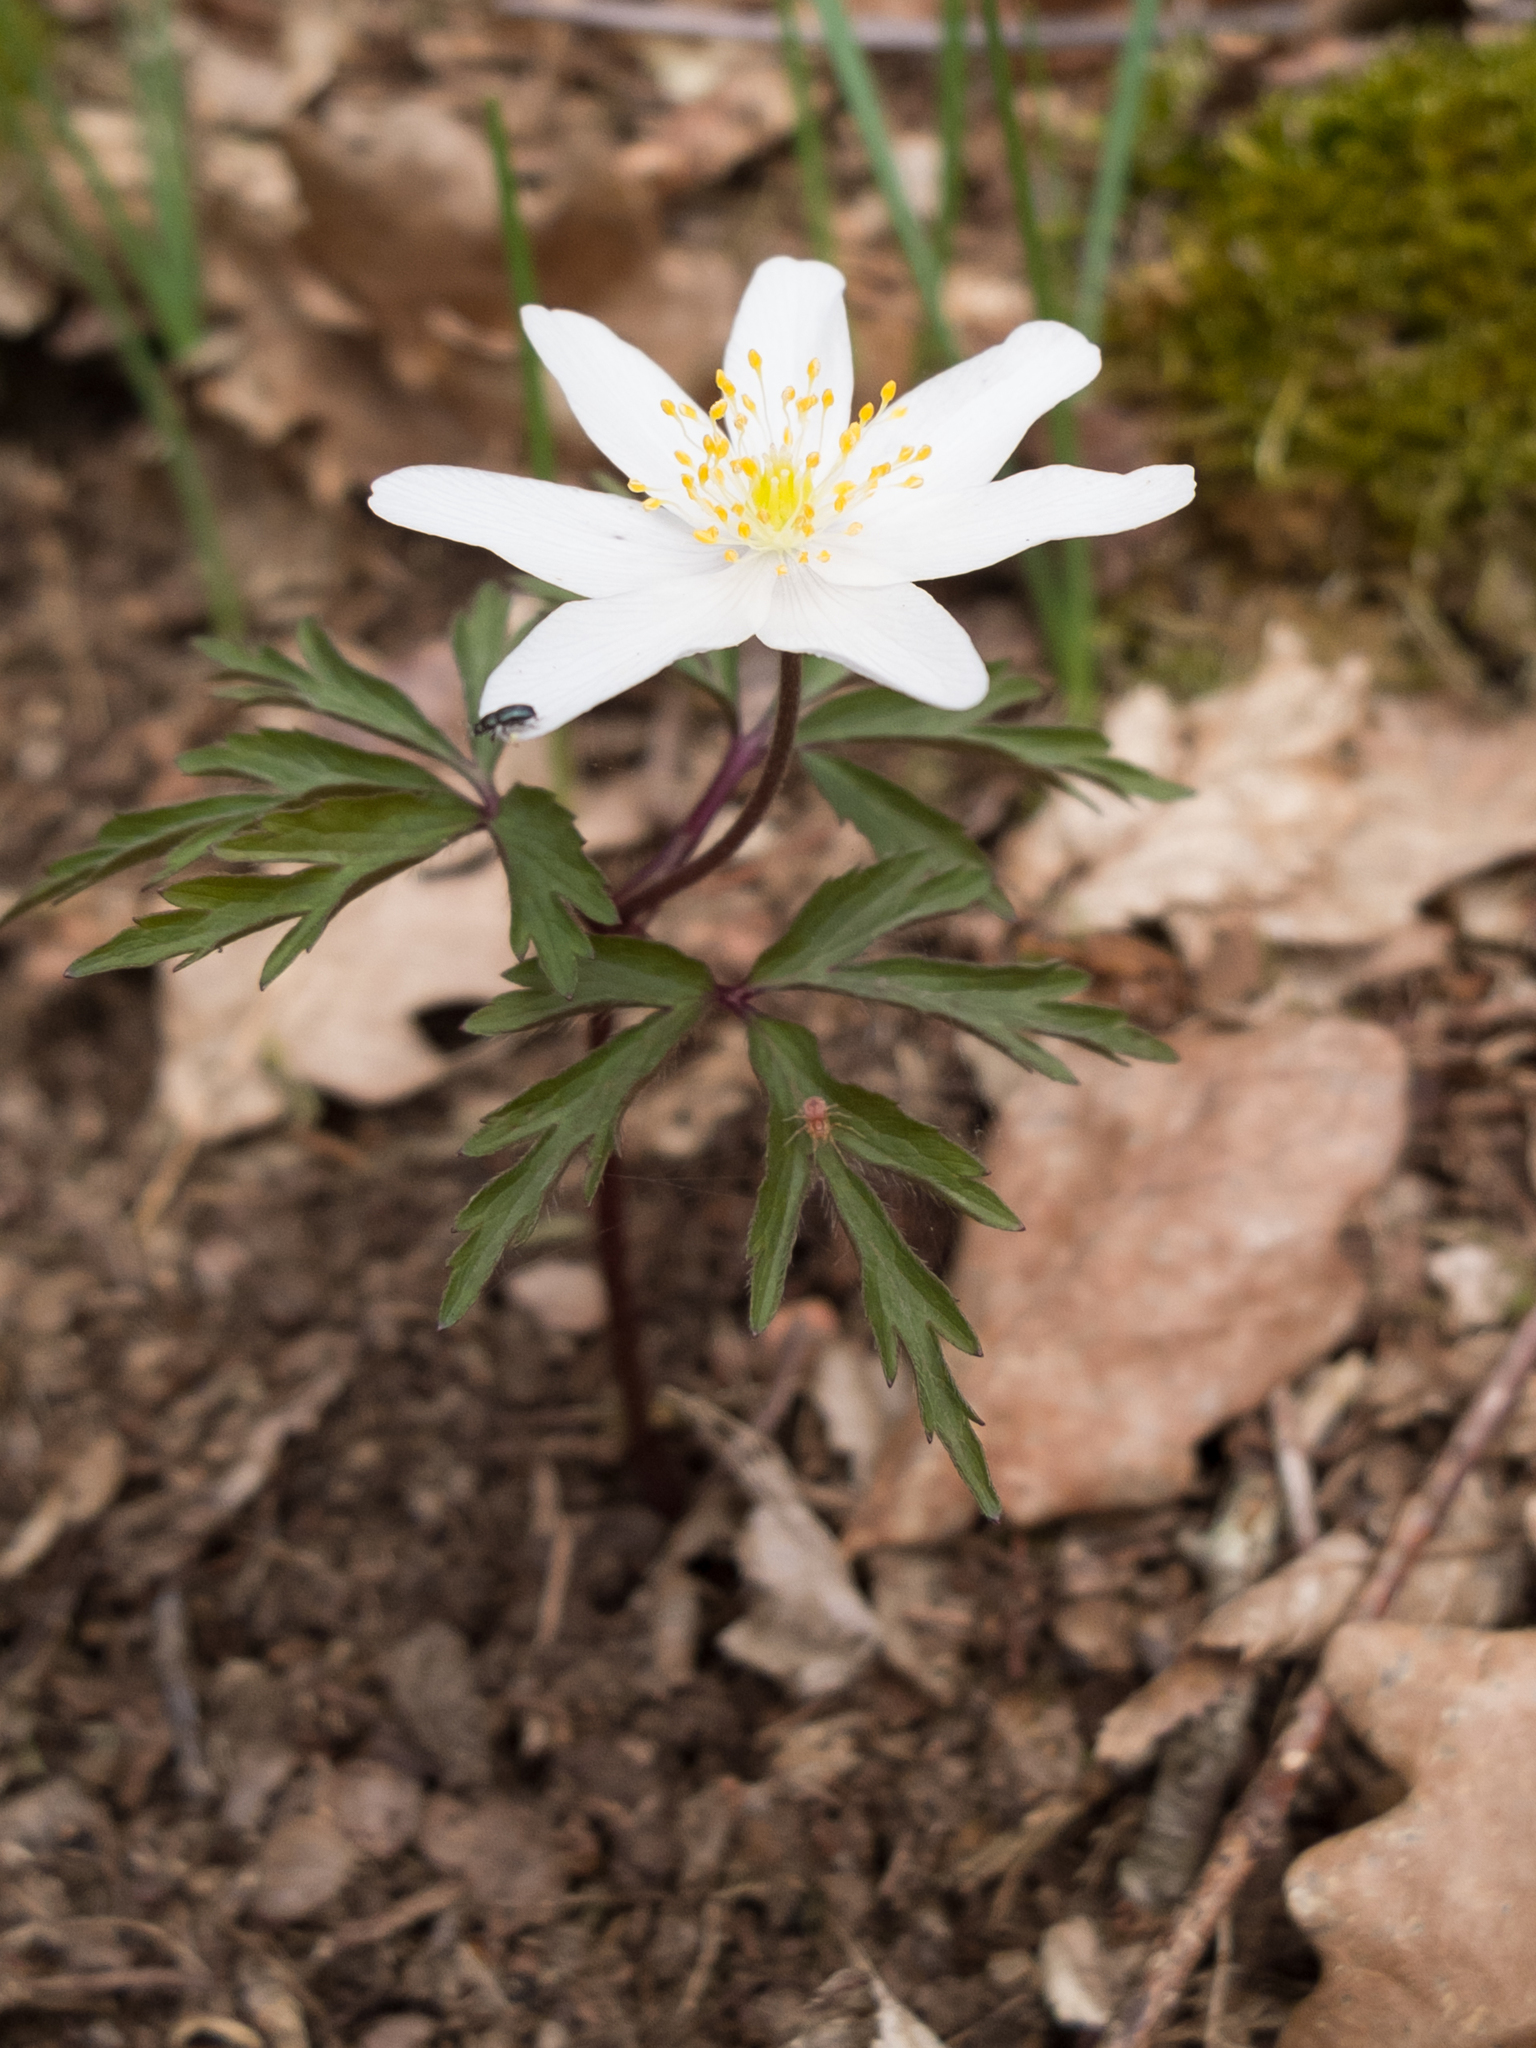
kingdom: Plantae
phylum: Tracheophyta
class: Magnoliopsida
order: Ranunculales
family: Ranunculaceae
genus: Anemone
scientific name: Anemone nemorosa
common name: Wood anemone
